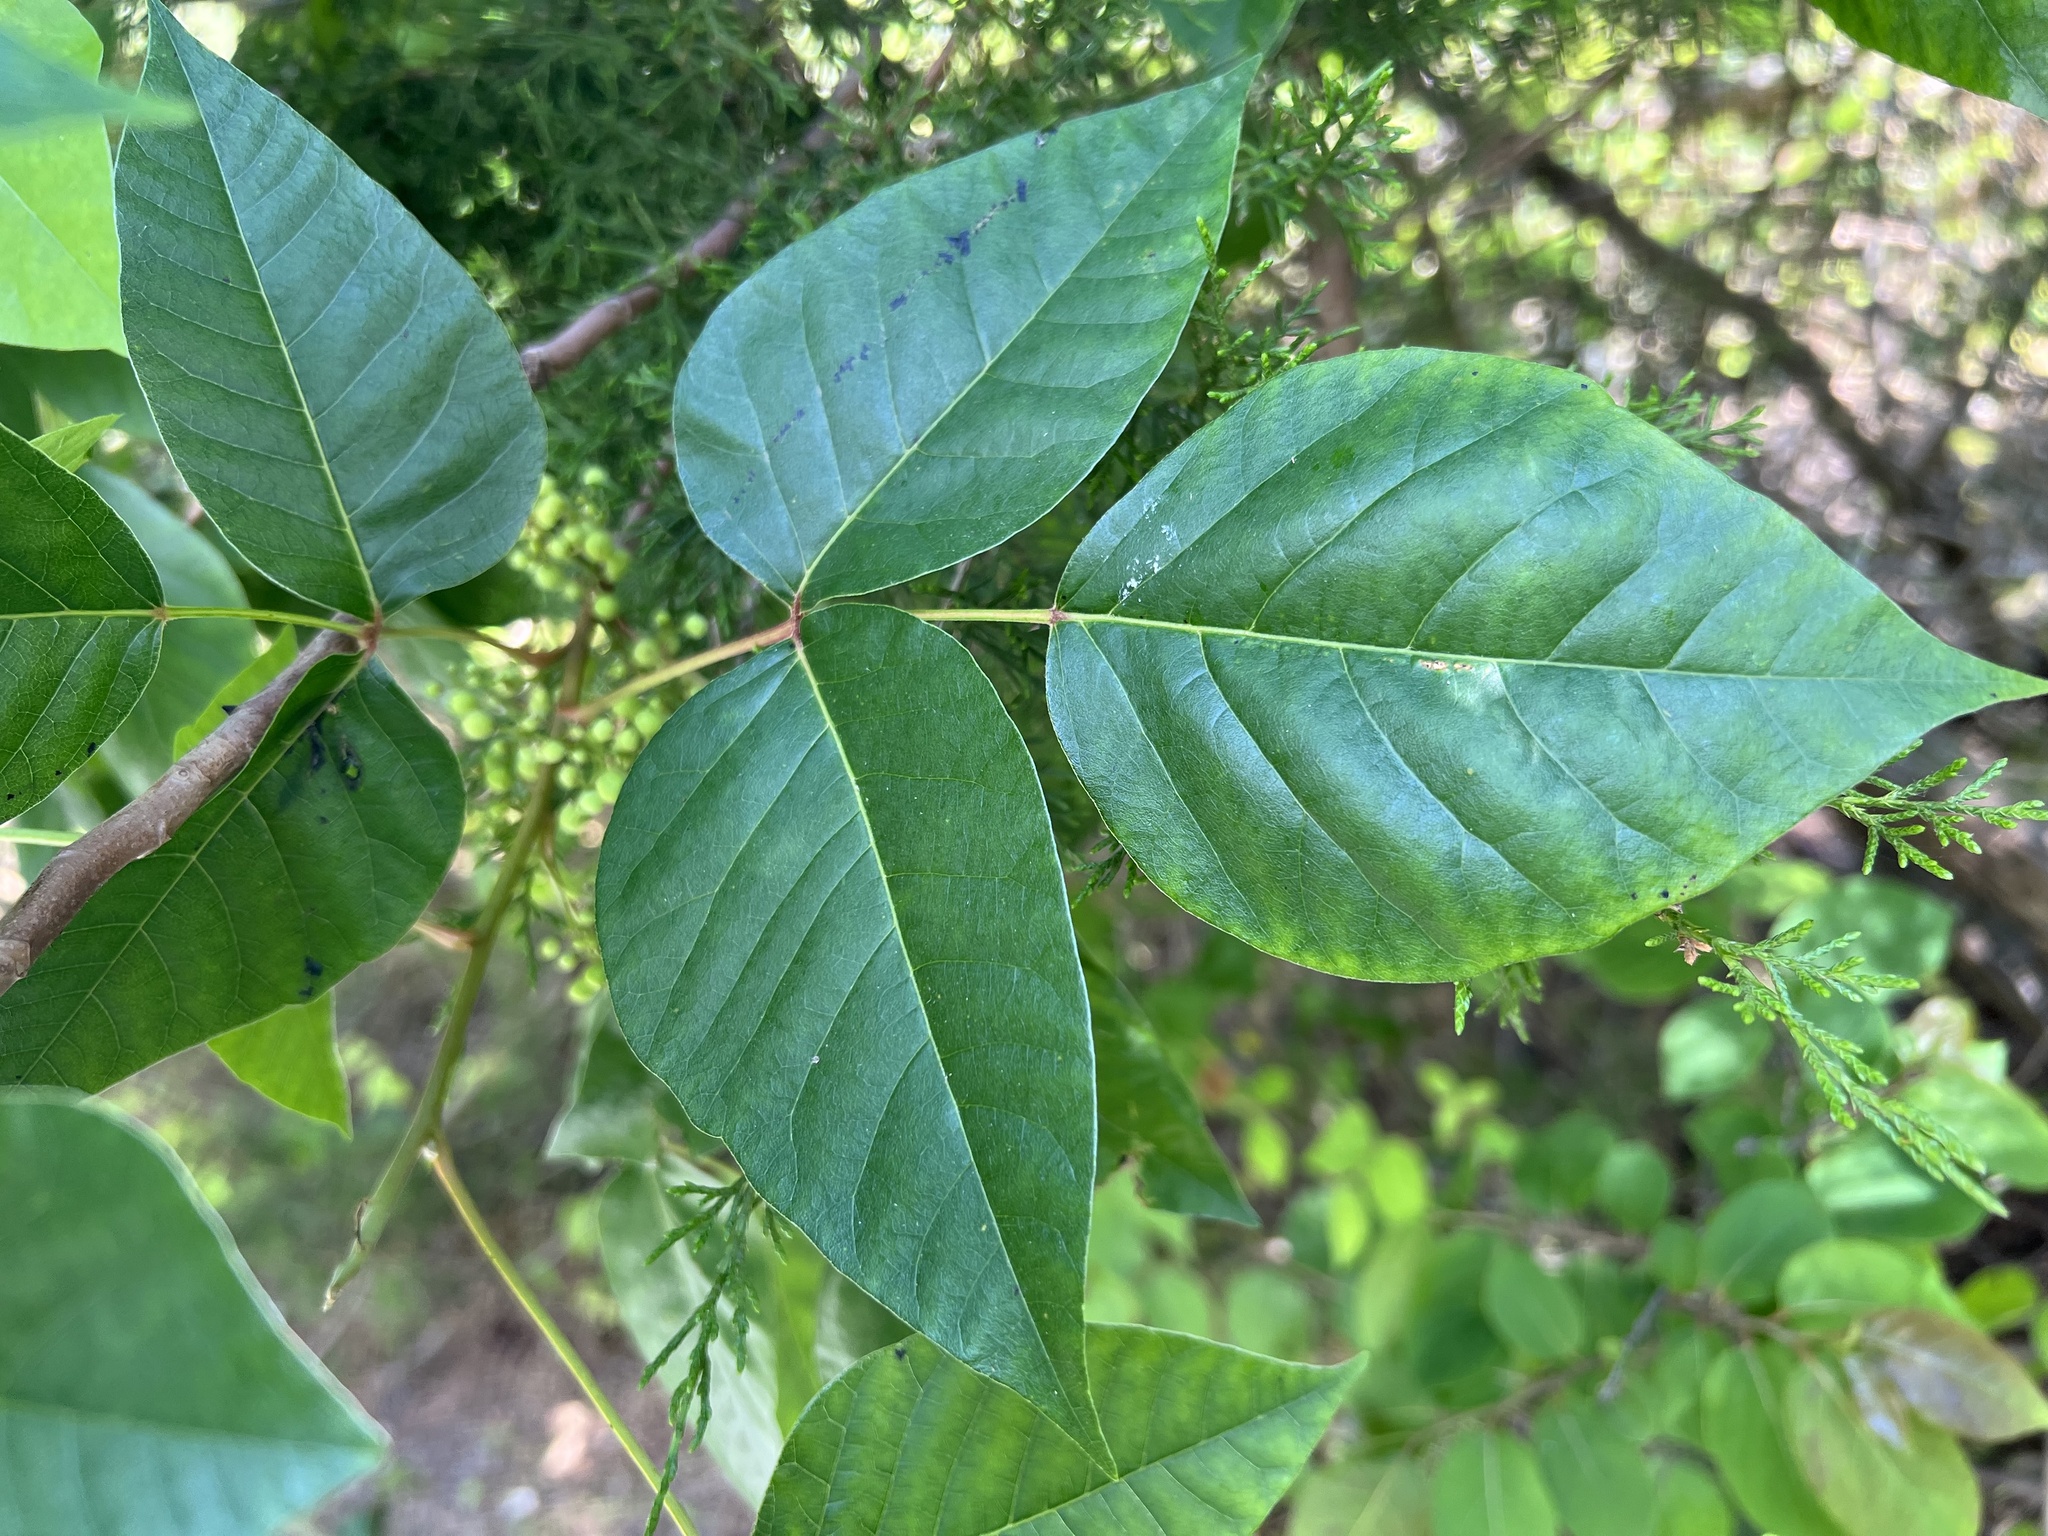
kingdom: Plantae
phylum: Tracheophyta
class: Magnoliopsida
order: Sapindales
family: Anacardiaceae
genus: Toxicodendron
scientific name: Toxicodendron radicans
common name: Poison ivy
